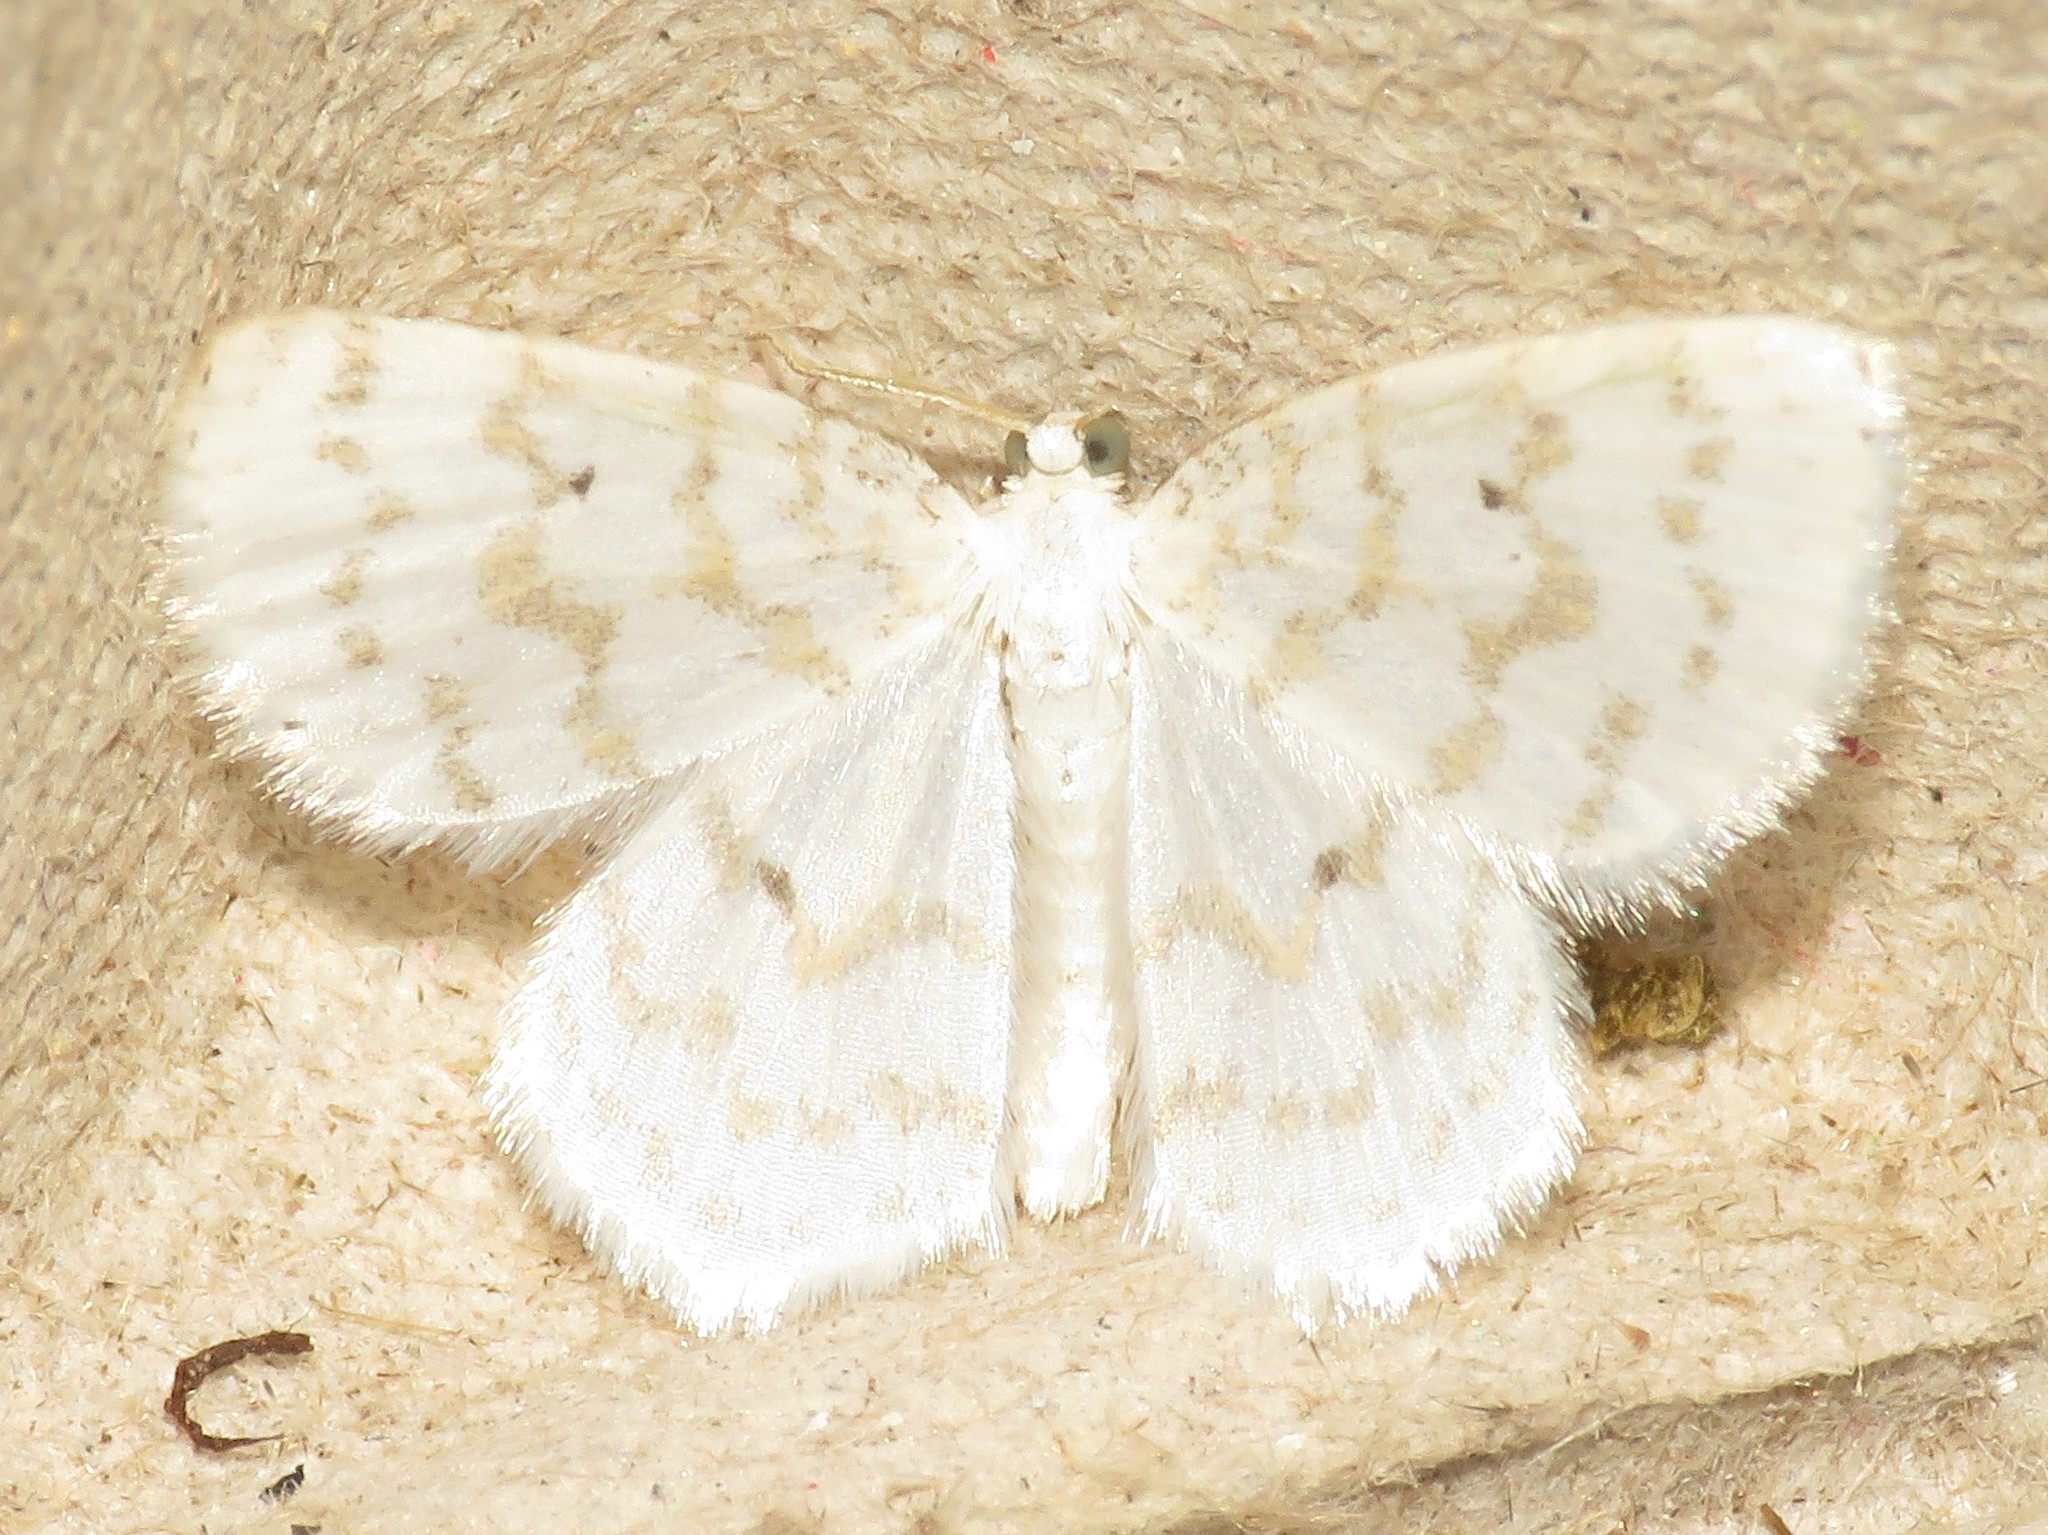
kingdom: Animalia
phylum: Arthropoda
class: Insecta
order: Lepidoptera
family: Geometridae
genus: Hydrelia
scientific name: Hydrelia albifera
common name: Fragile white carpet
